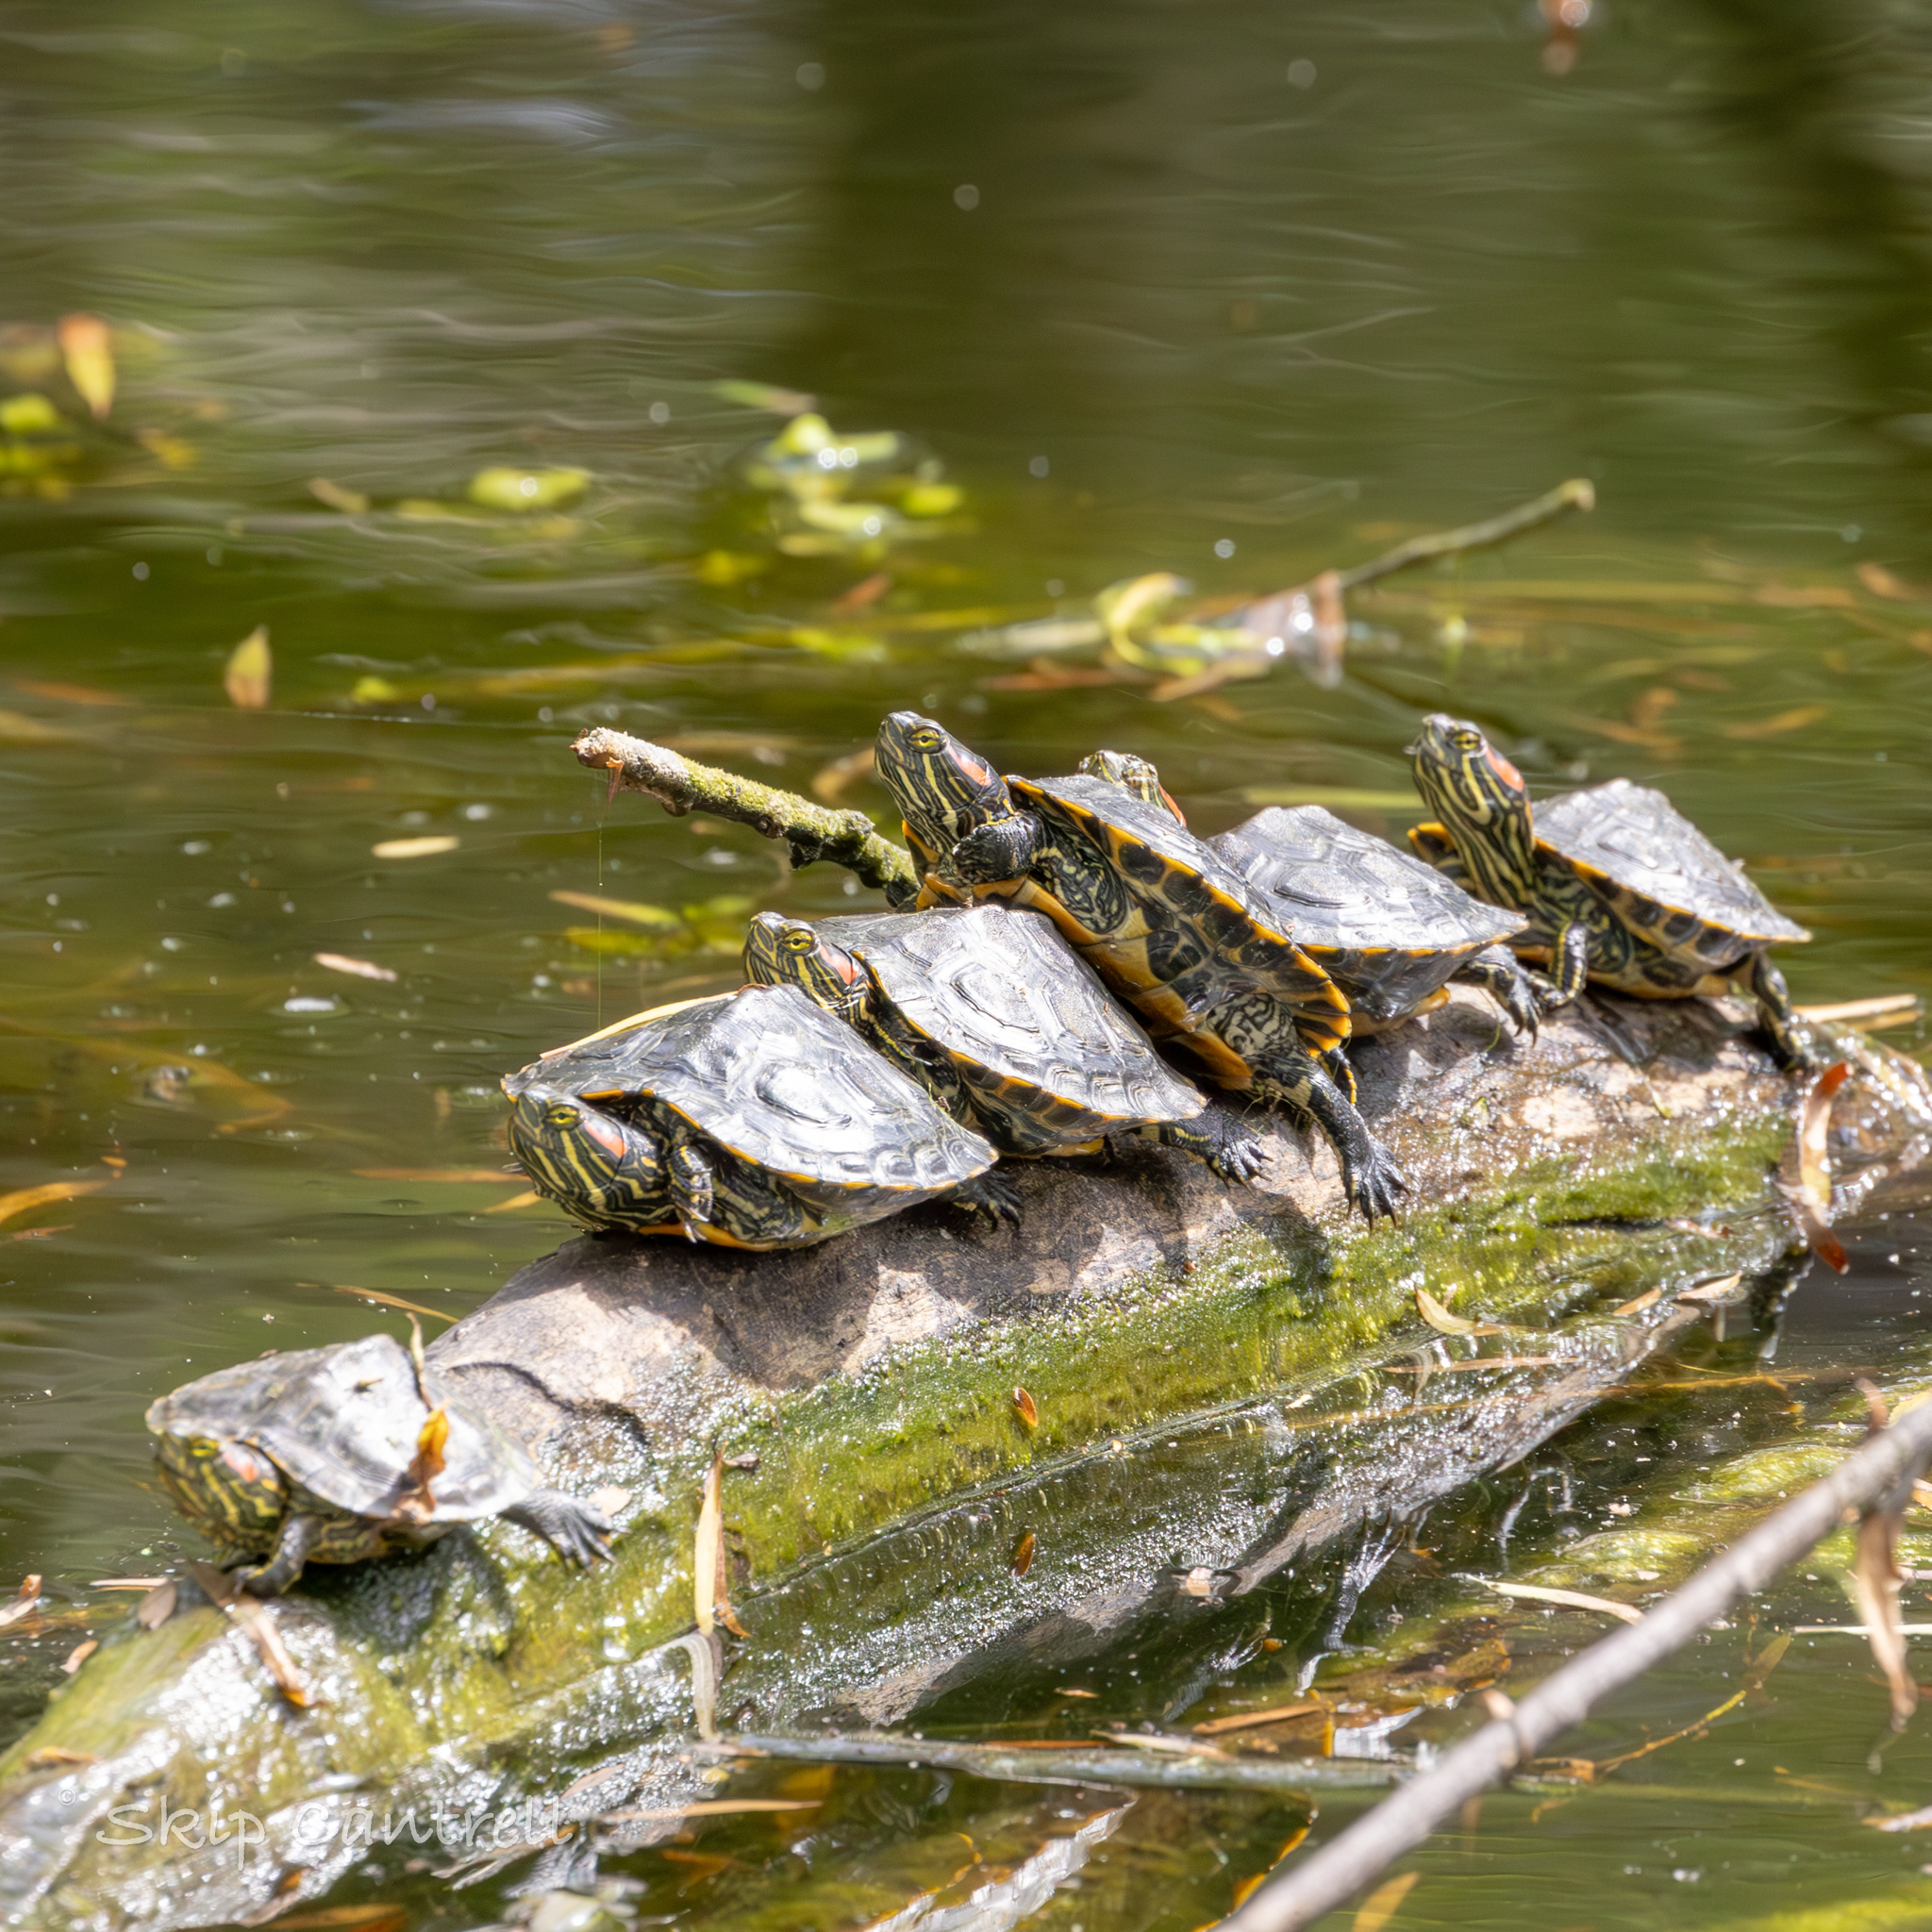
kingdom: Animalia
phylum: Chordata
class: Testudines
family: Emydidae
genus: Trachemys
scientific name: Trachemys scripta
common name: Slider
